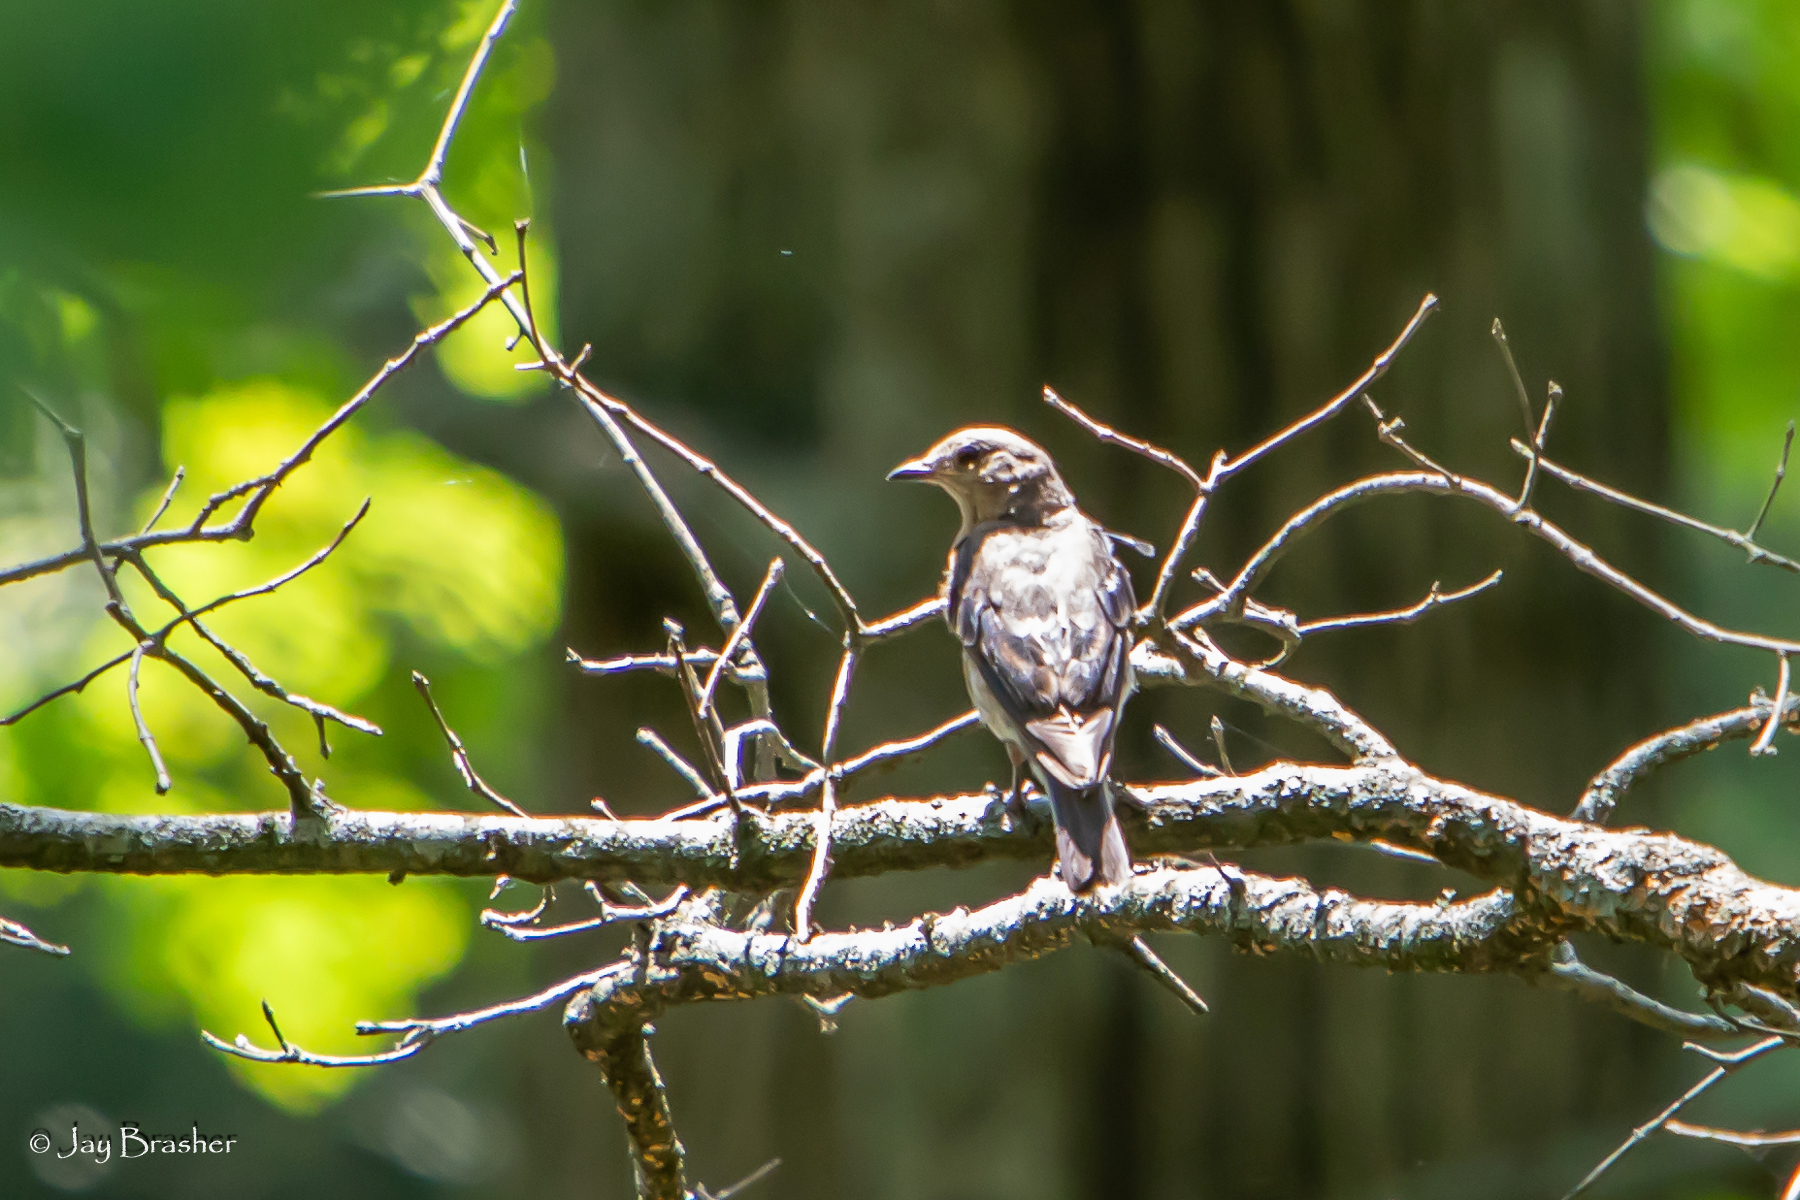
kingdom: Animalia
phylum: Chordata
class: Aves
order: Passeriformes
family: Icteridae
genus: Icterus
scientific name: Icterus galbula
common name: Baltimore oriole
